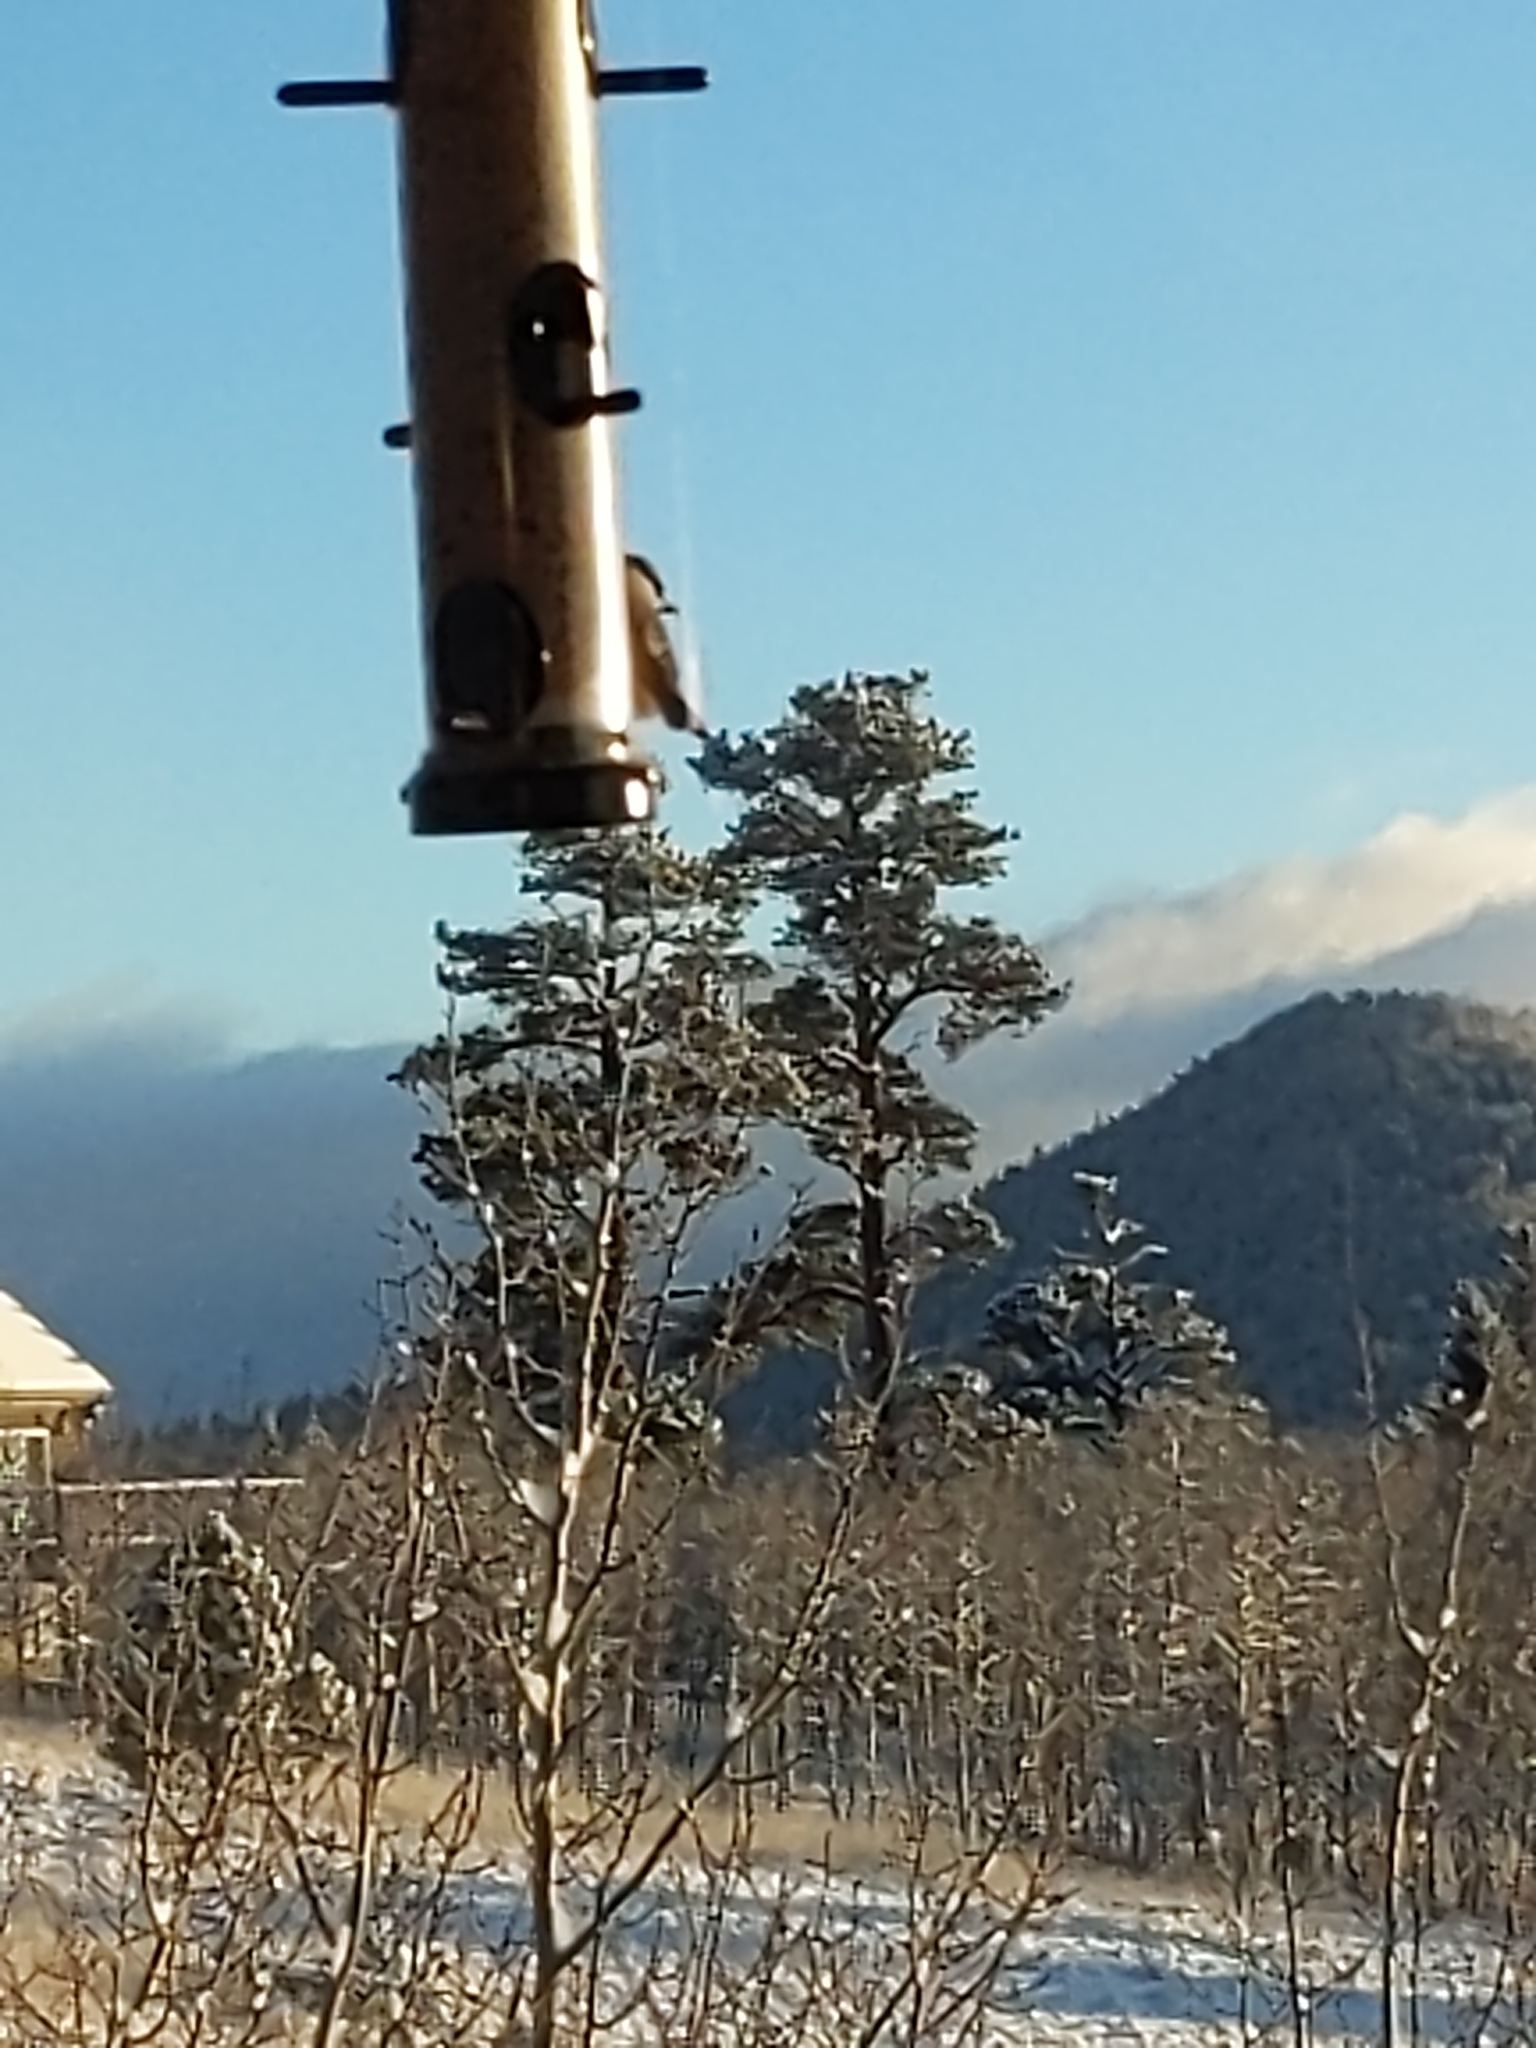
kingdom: Animalia
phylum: Chordata
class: Aves
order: Passeriformes
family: Paridae
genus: Poecile
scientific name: Poecile gambeli
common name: Mountain chickadee
